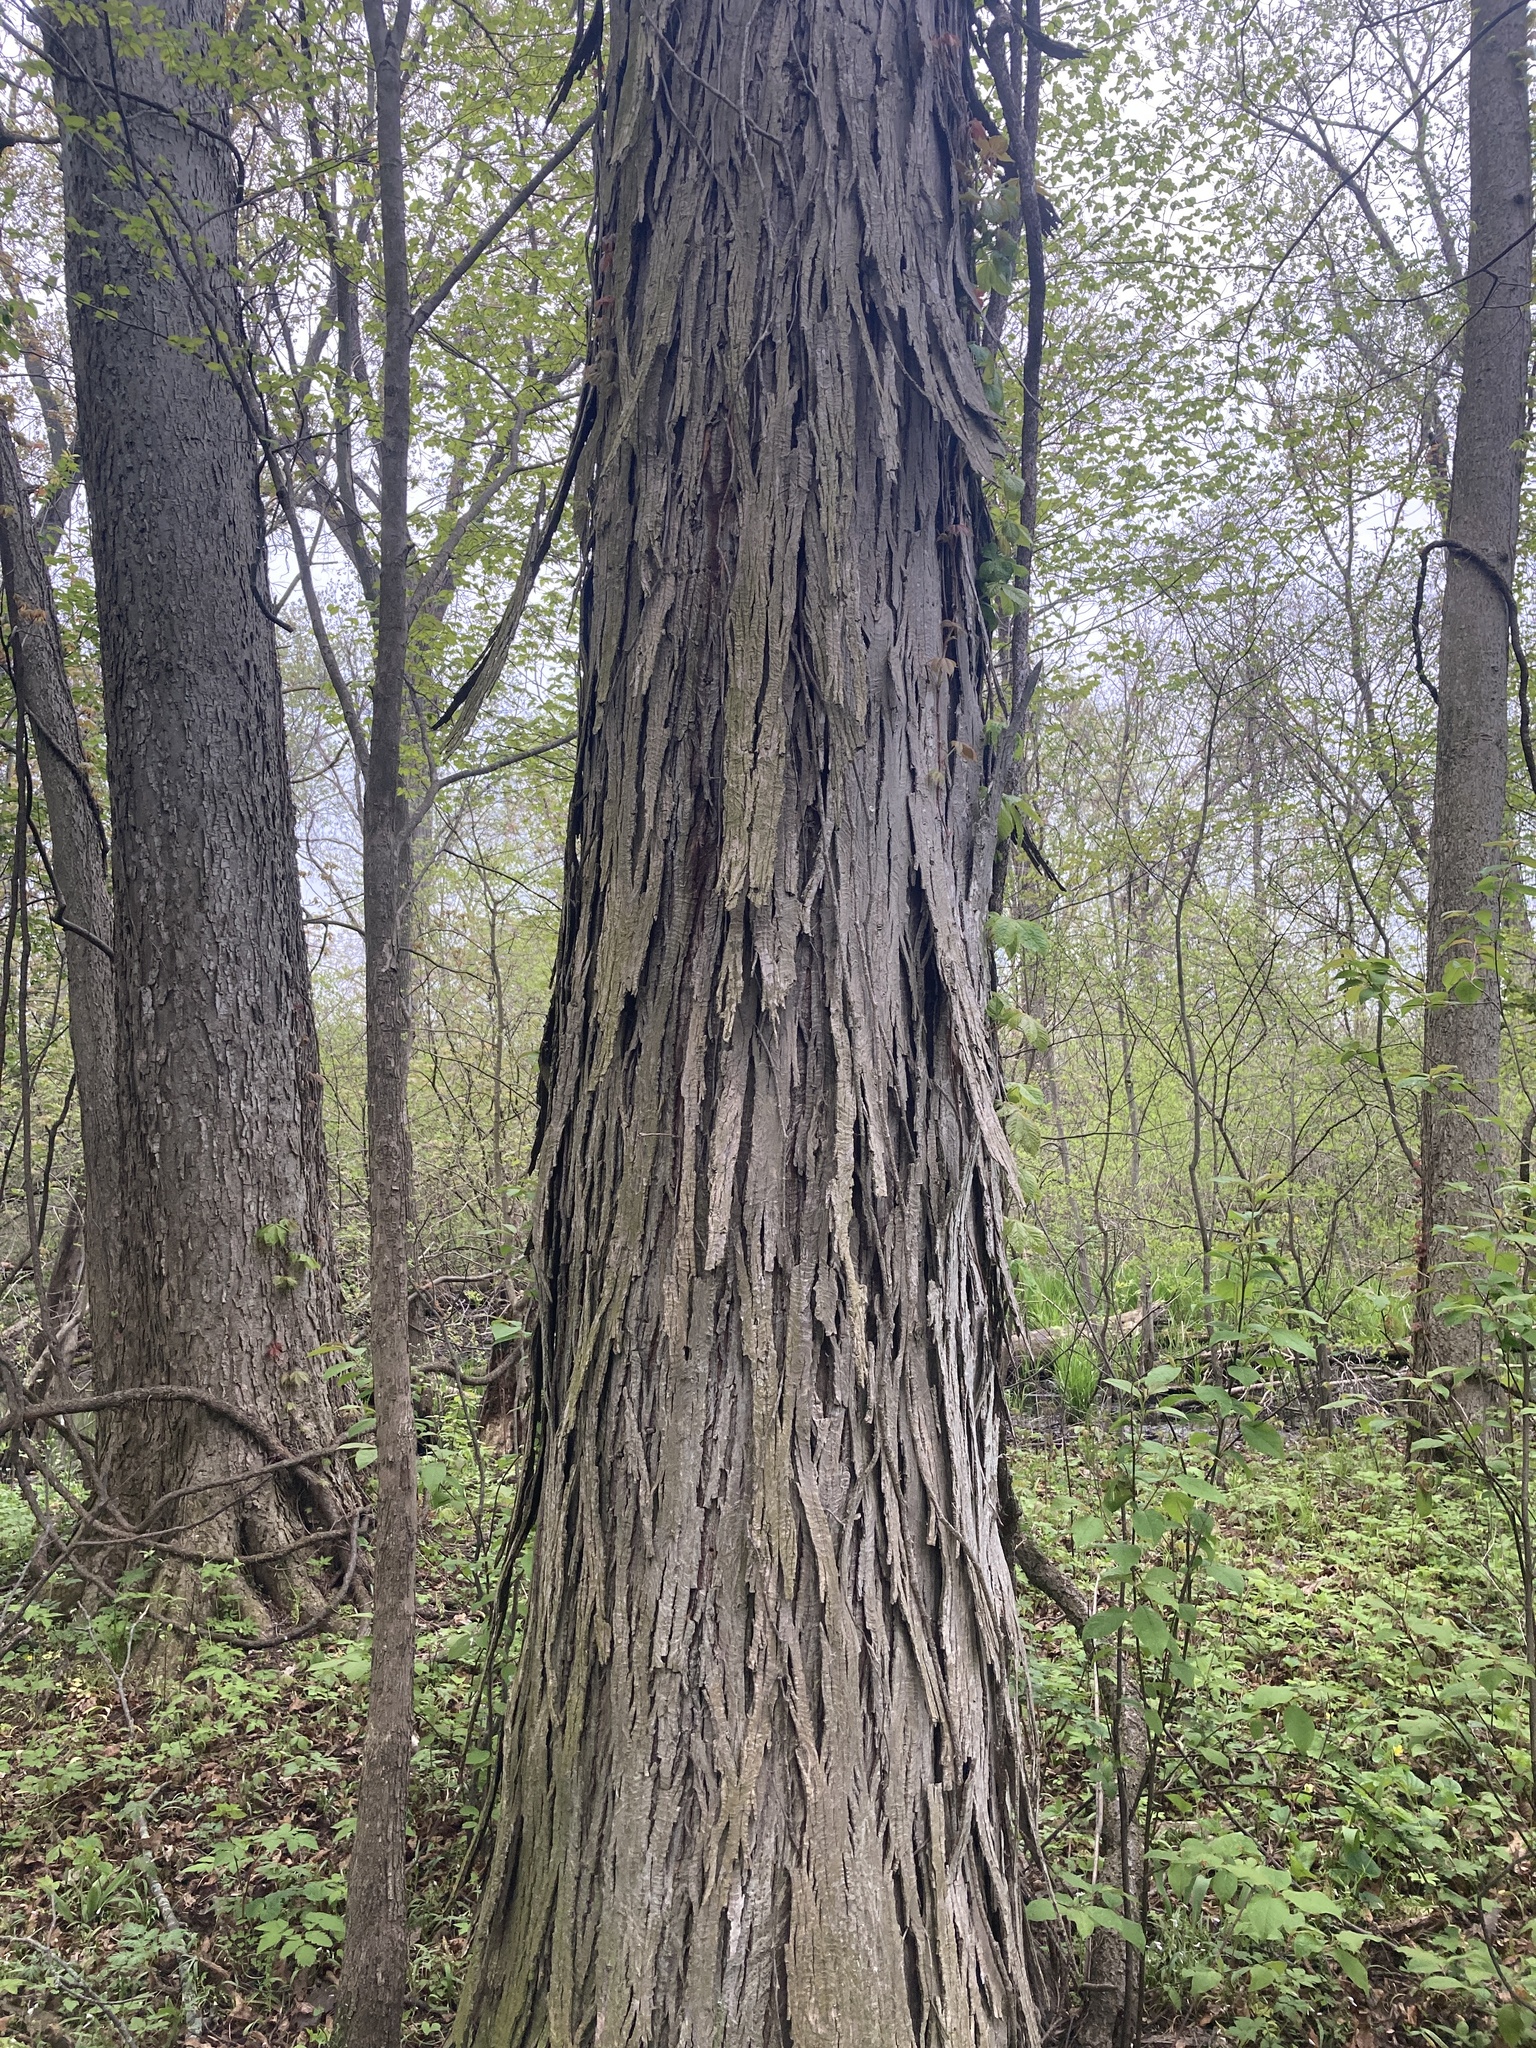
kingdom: Plantae
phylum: Tracheophyta
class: Magnoliopsida
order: Fagales
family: Juglandaceae
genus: Carya
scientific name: Carya ovata
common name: Shagbark hickory
